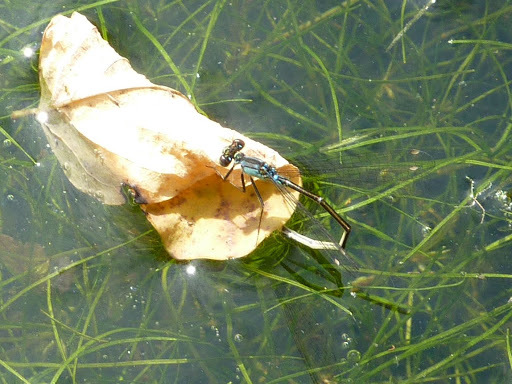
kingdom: Animalia
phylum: Arthropoda
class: Insecta
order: Odonata
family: Coenagrionidae
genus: Ischnura
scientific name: Ischnura cervula
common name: Pacific forktail
